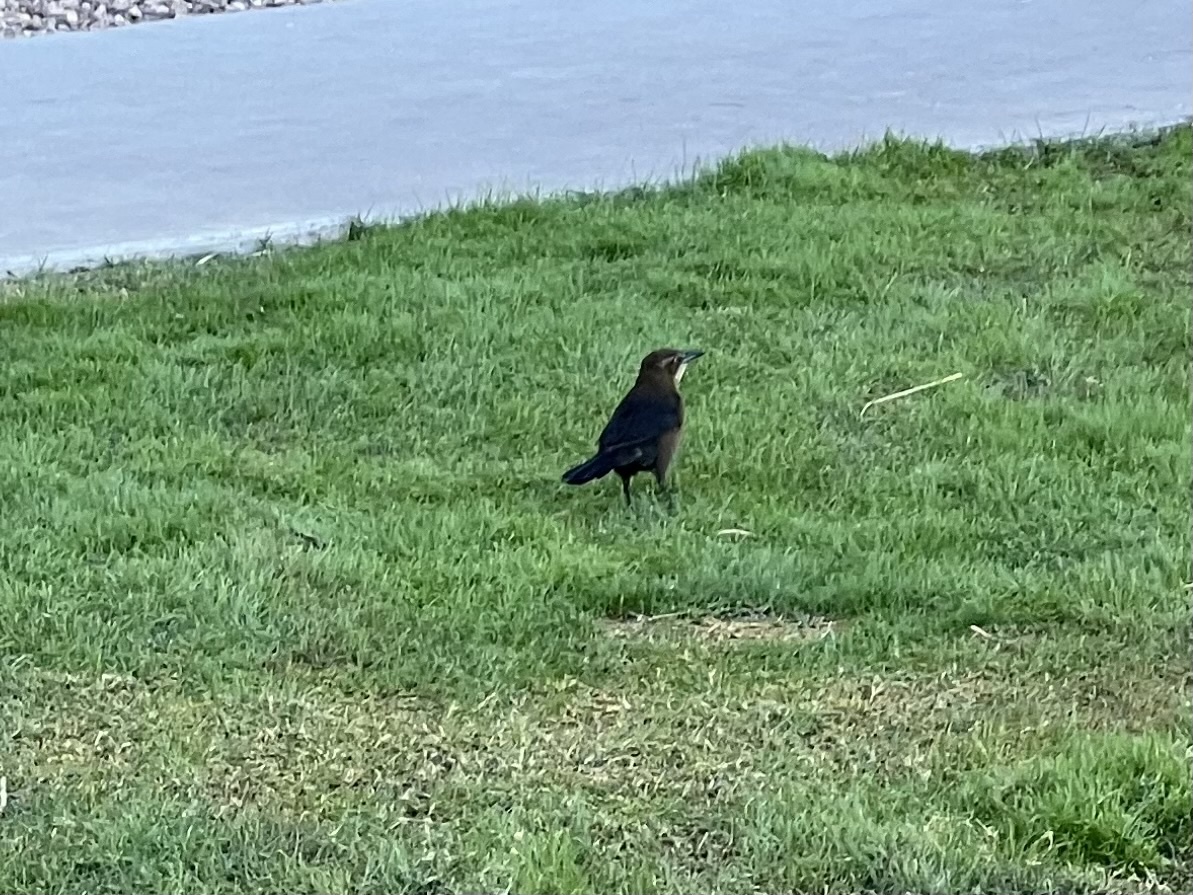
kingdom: Animalia
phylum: Chordata
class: Aves
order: Passeriformes
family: Icteridae
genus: Quiscalus
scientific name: Quiscalus mexicanus
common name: Great-tailed grackle
